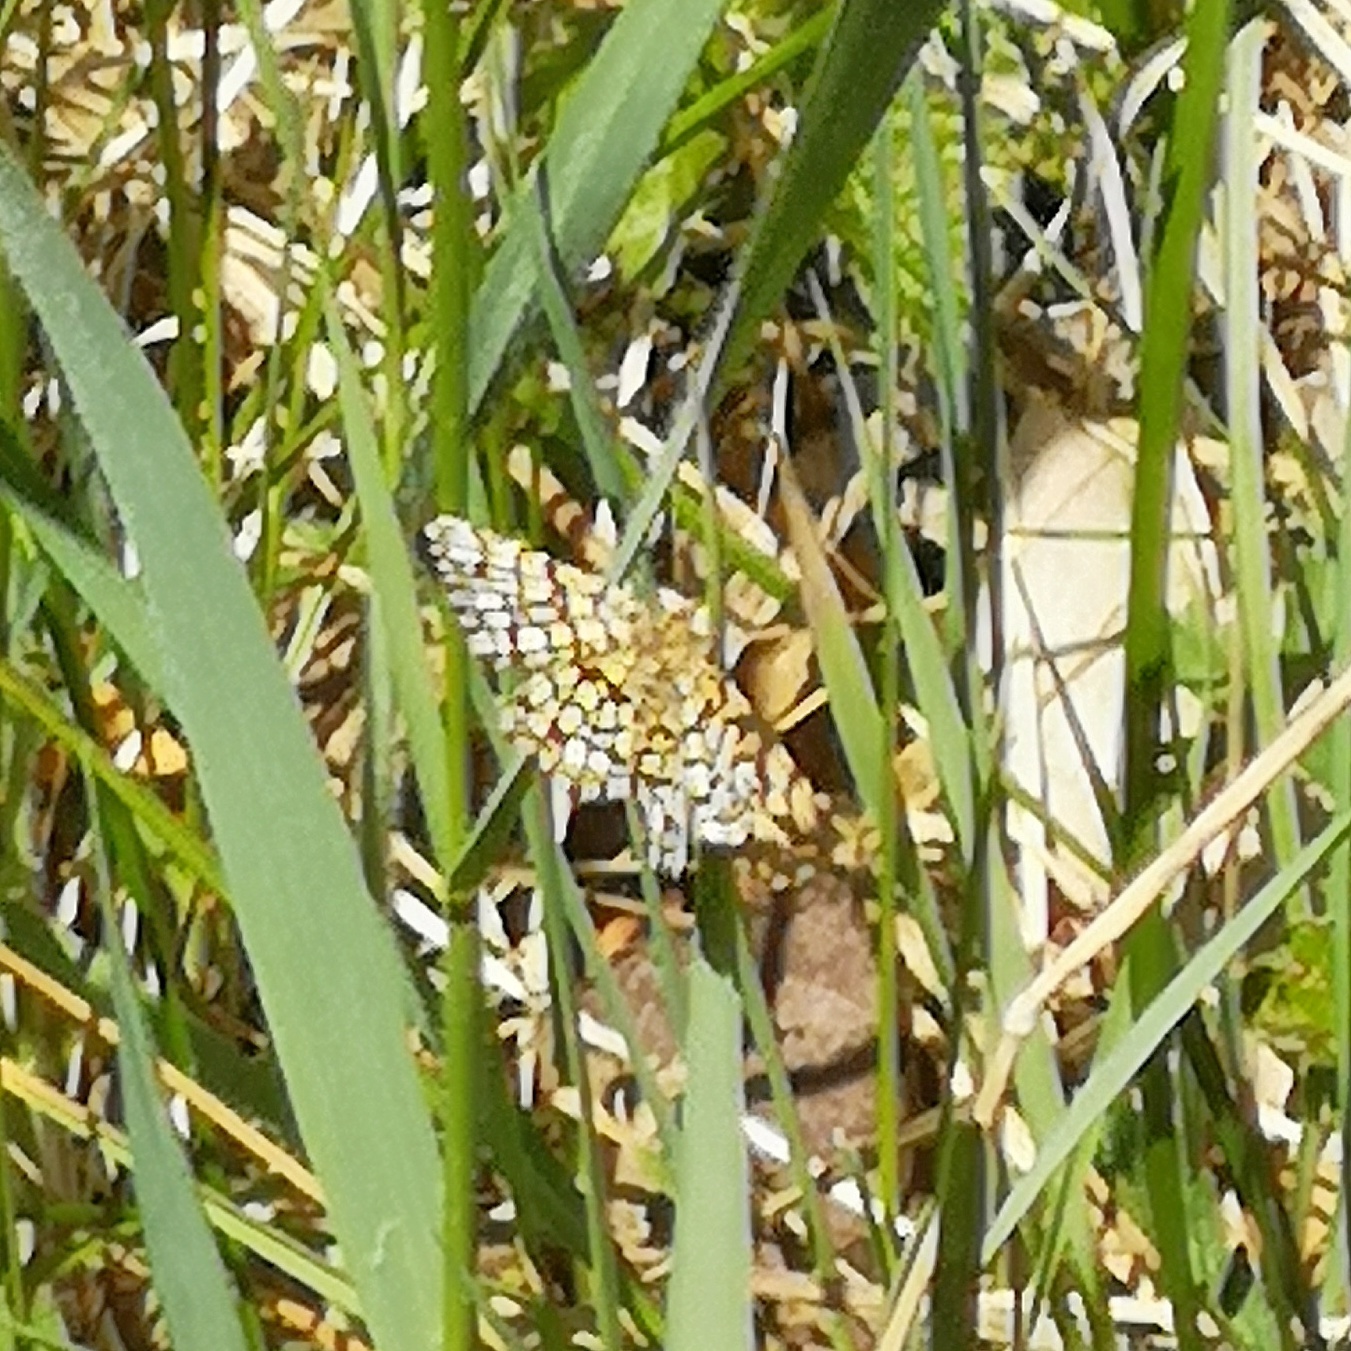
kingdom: Animalia
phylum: Arthropoda
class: Insecta
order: Lepidoptera
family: Geometridae
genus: Chiasmia
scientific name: Chiasmia clathrata
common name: Latticed heath
